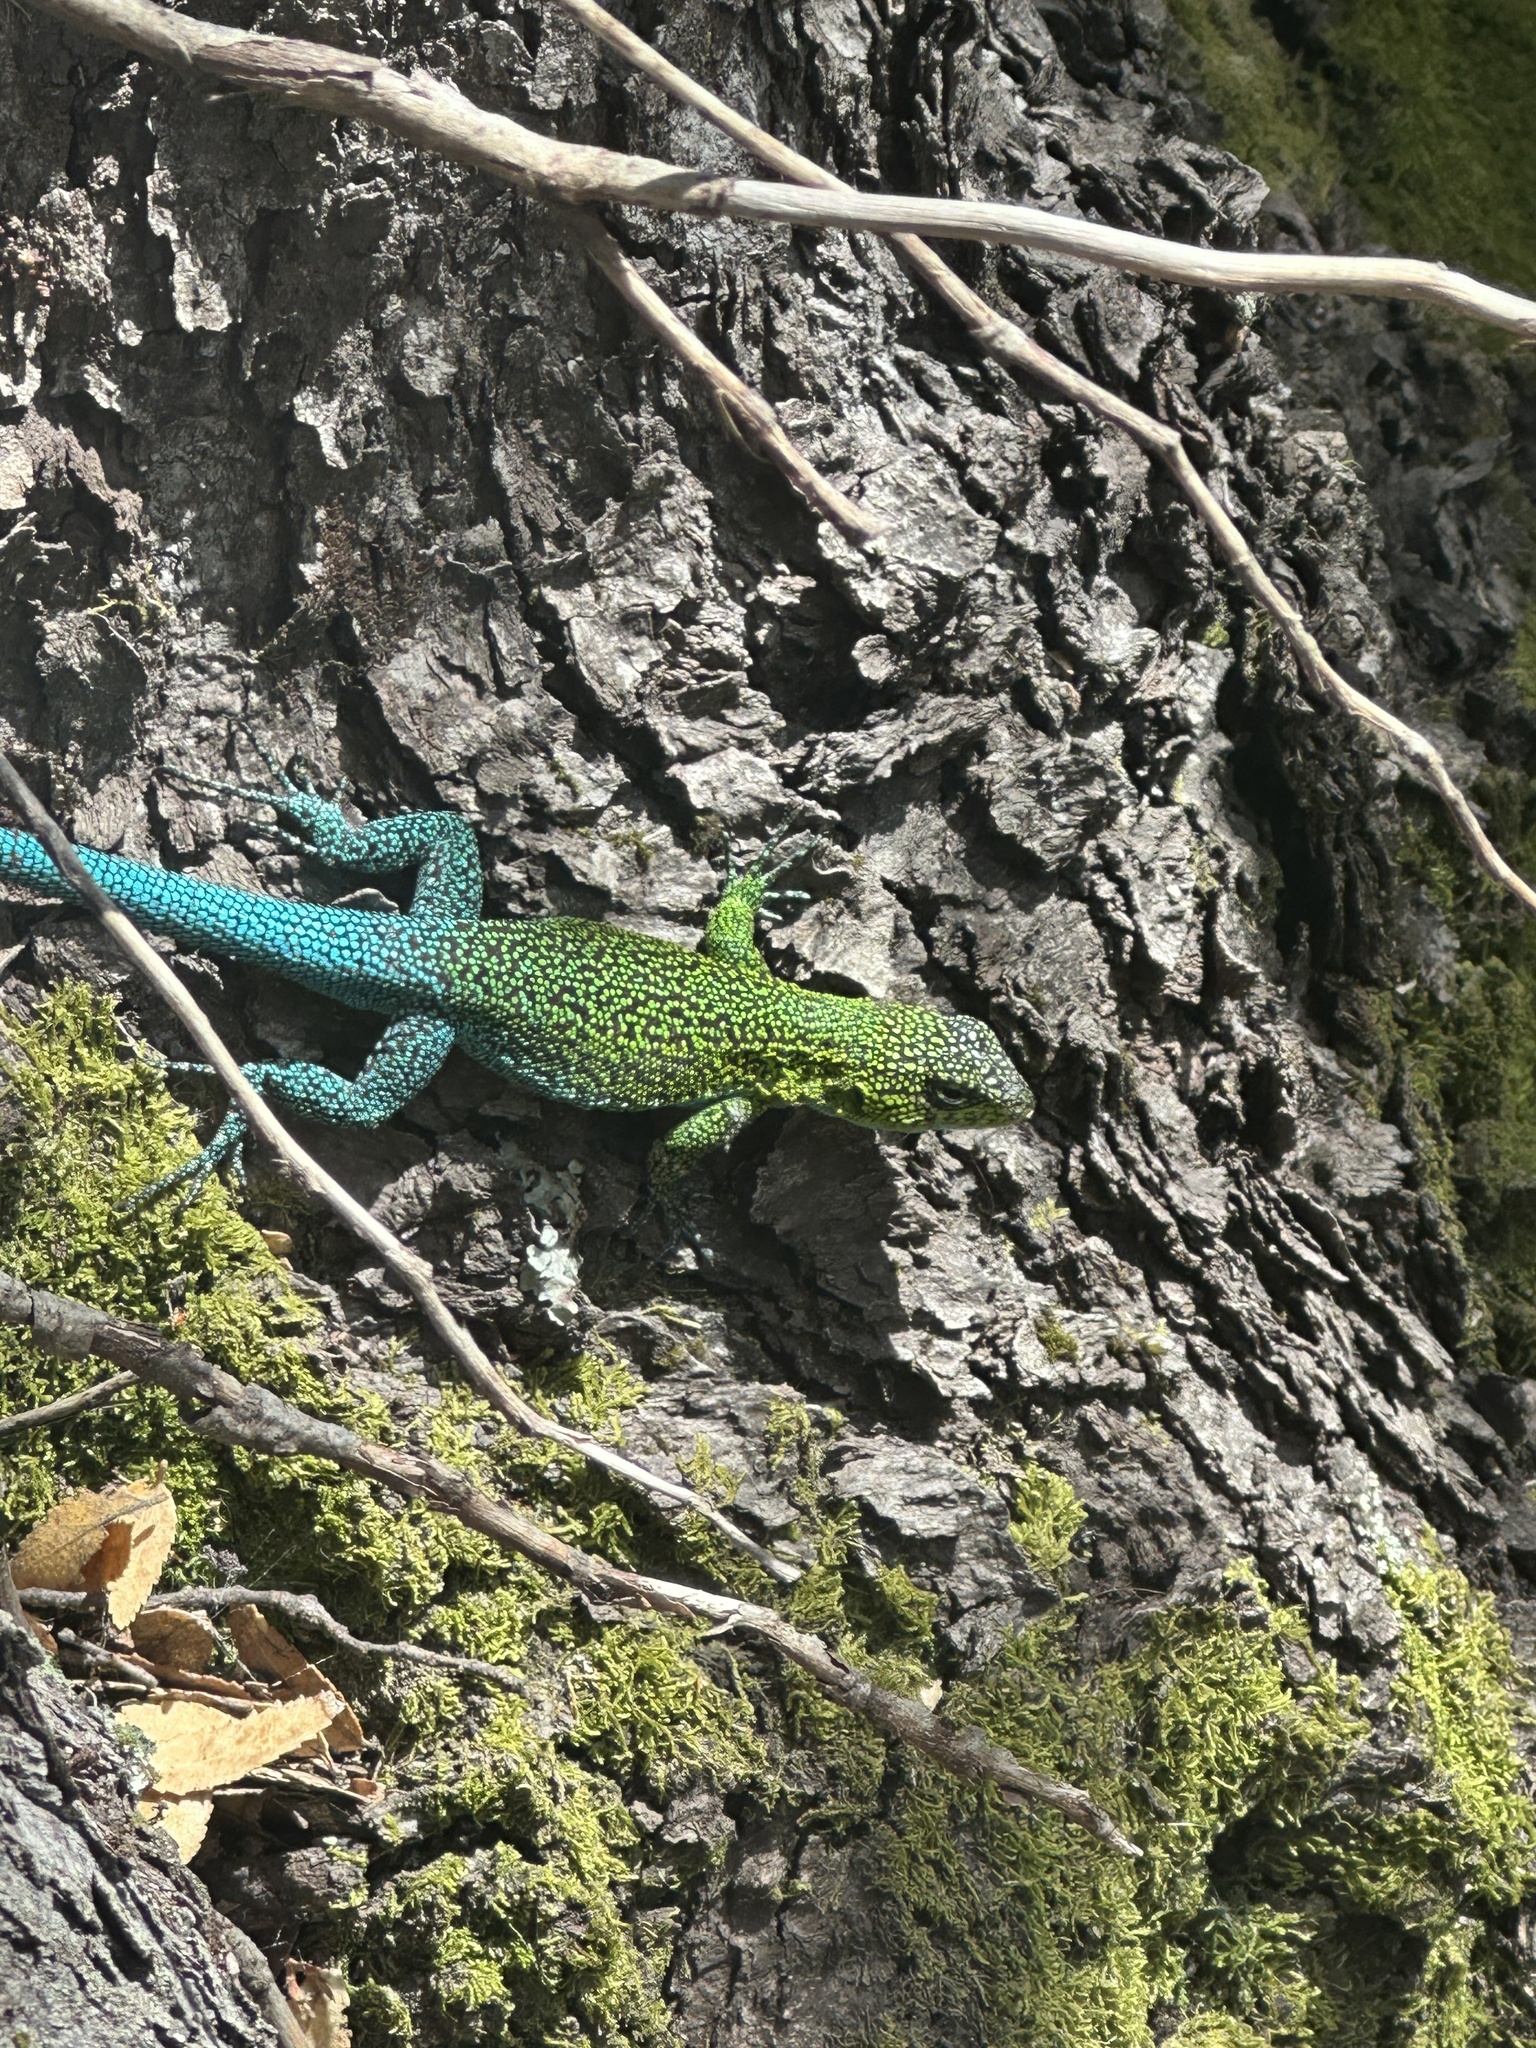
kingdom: Animalia
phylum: Chordata
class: Squamata
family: Liolaemidae
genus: Liolaemus
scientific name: Liolaemus tenuis
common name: Thin tree iguana
